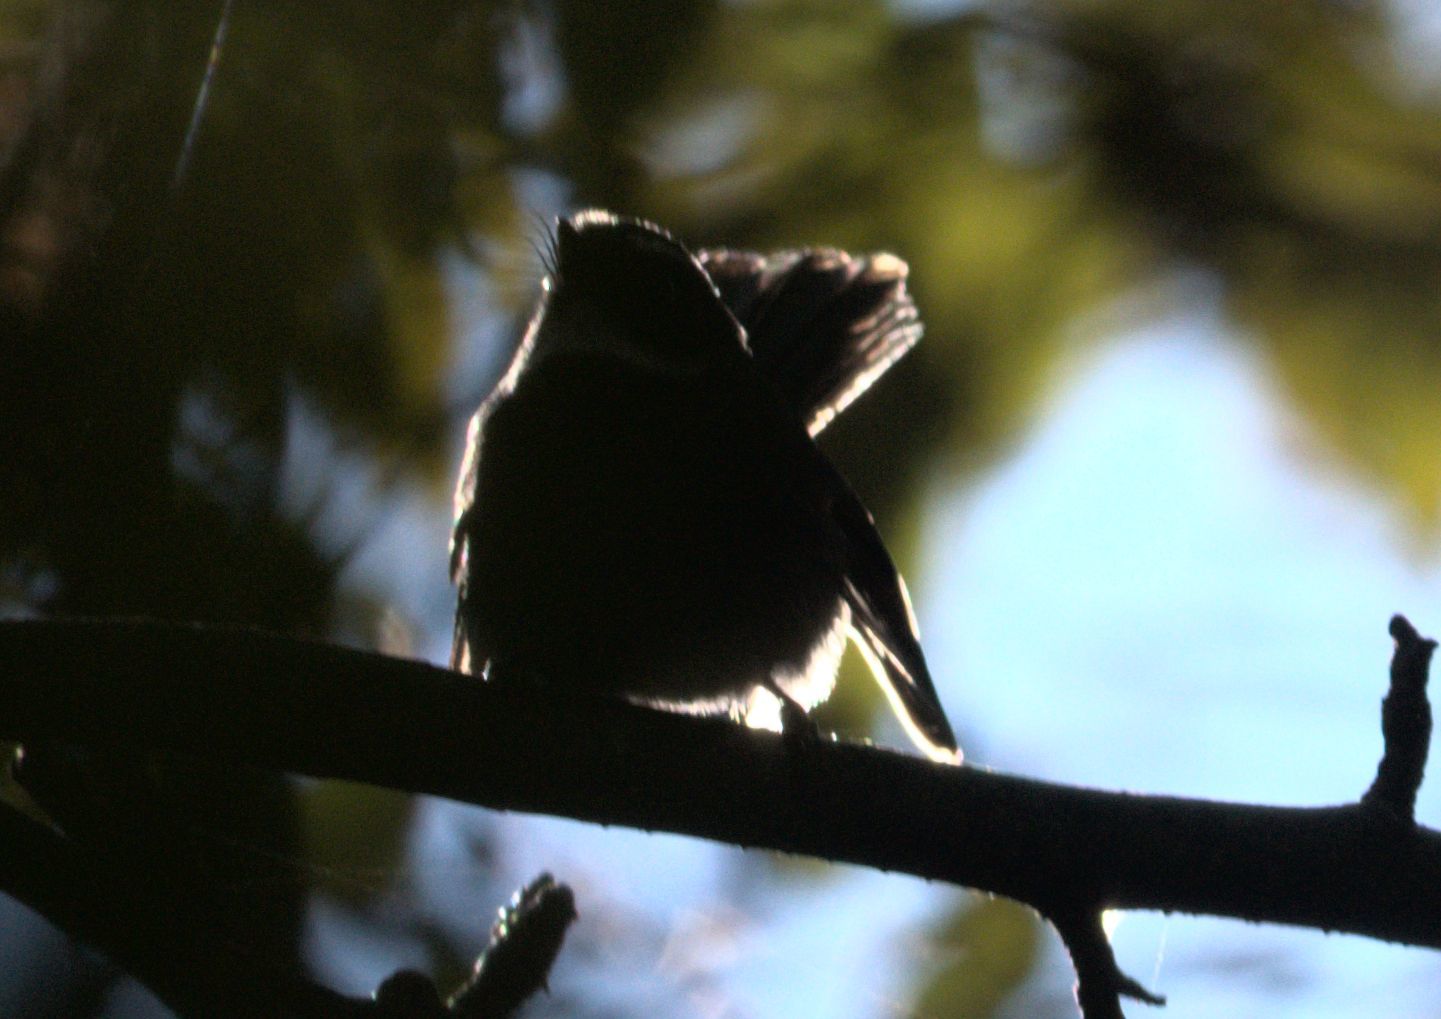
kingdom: Animalia
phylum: Chordata
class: Aves
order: Passeriformes
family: Rhipiduridae
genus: Rhipidura
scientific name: Rhipidura albicollis
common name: White-throated fantail
